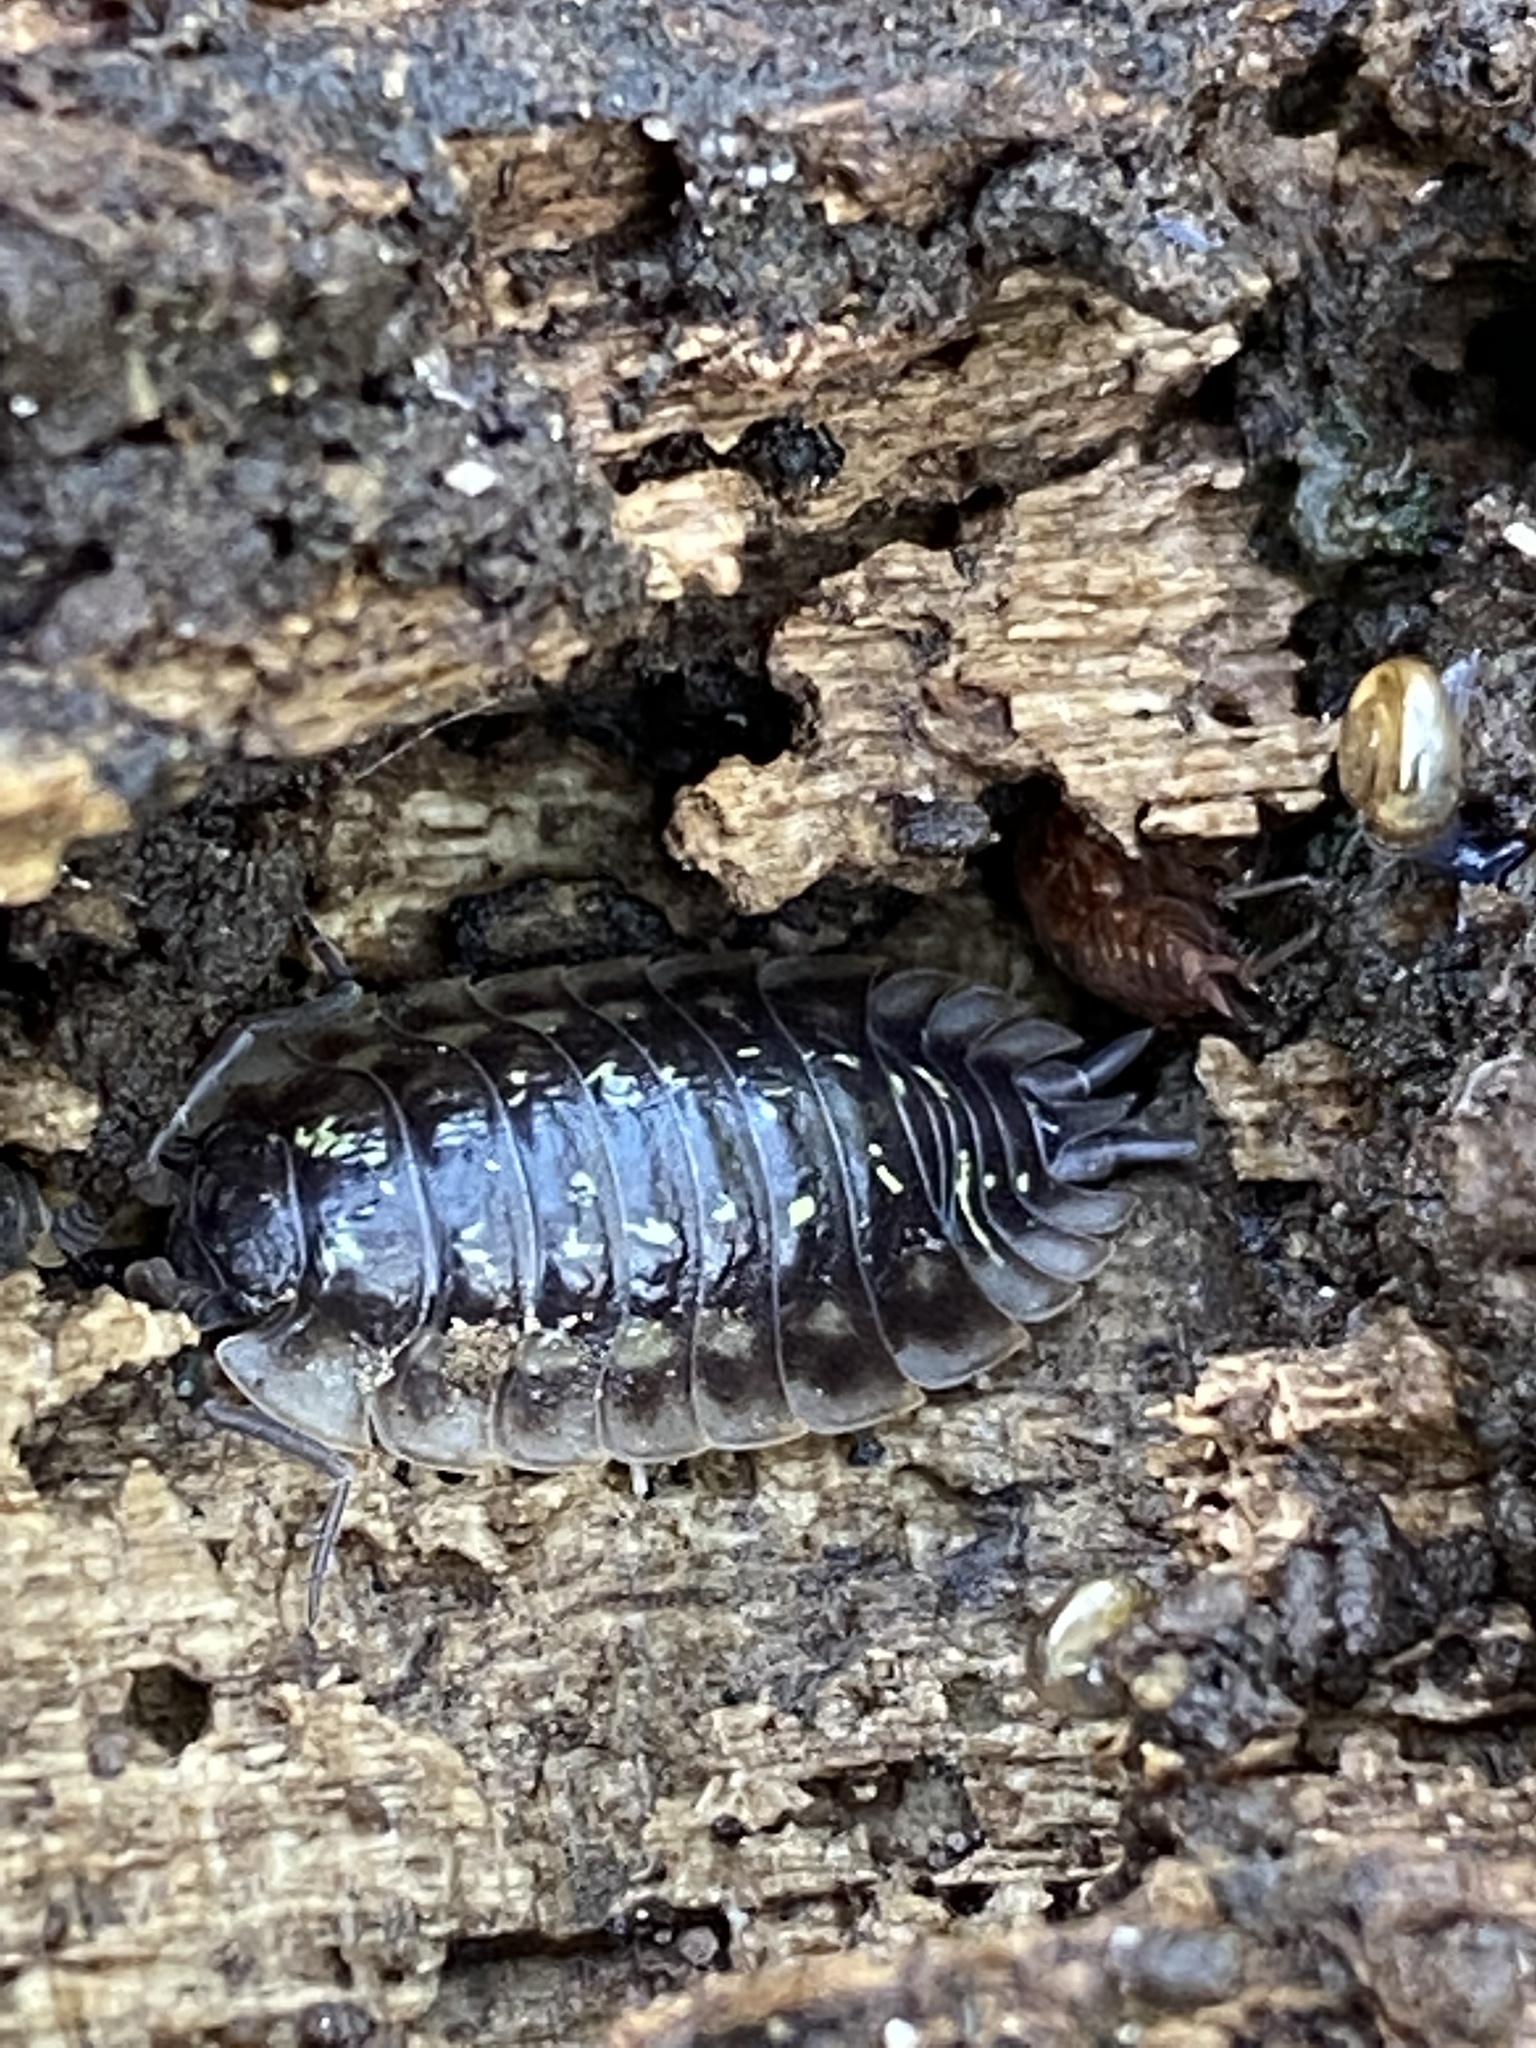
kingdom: Animalia
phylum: Arthropoda
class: Malacostraca
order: Isopoda
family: Oniscidae
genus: Oniscus
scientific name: Oniscus asellus
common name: Common shiny woodlouse
